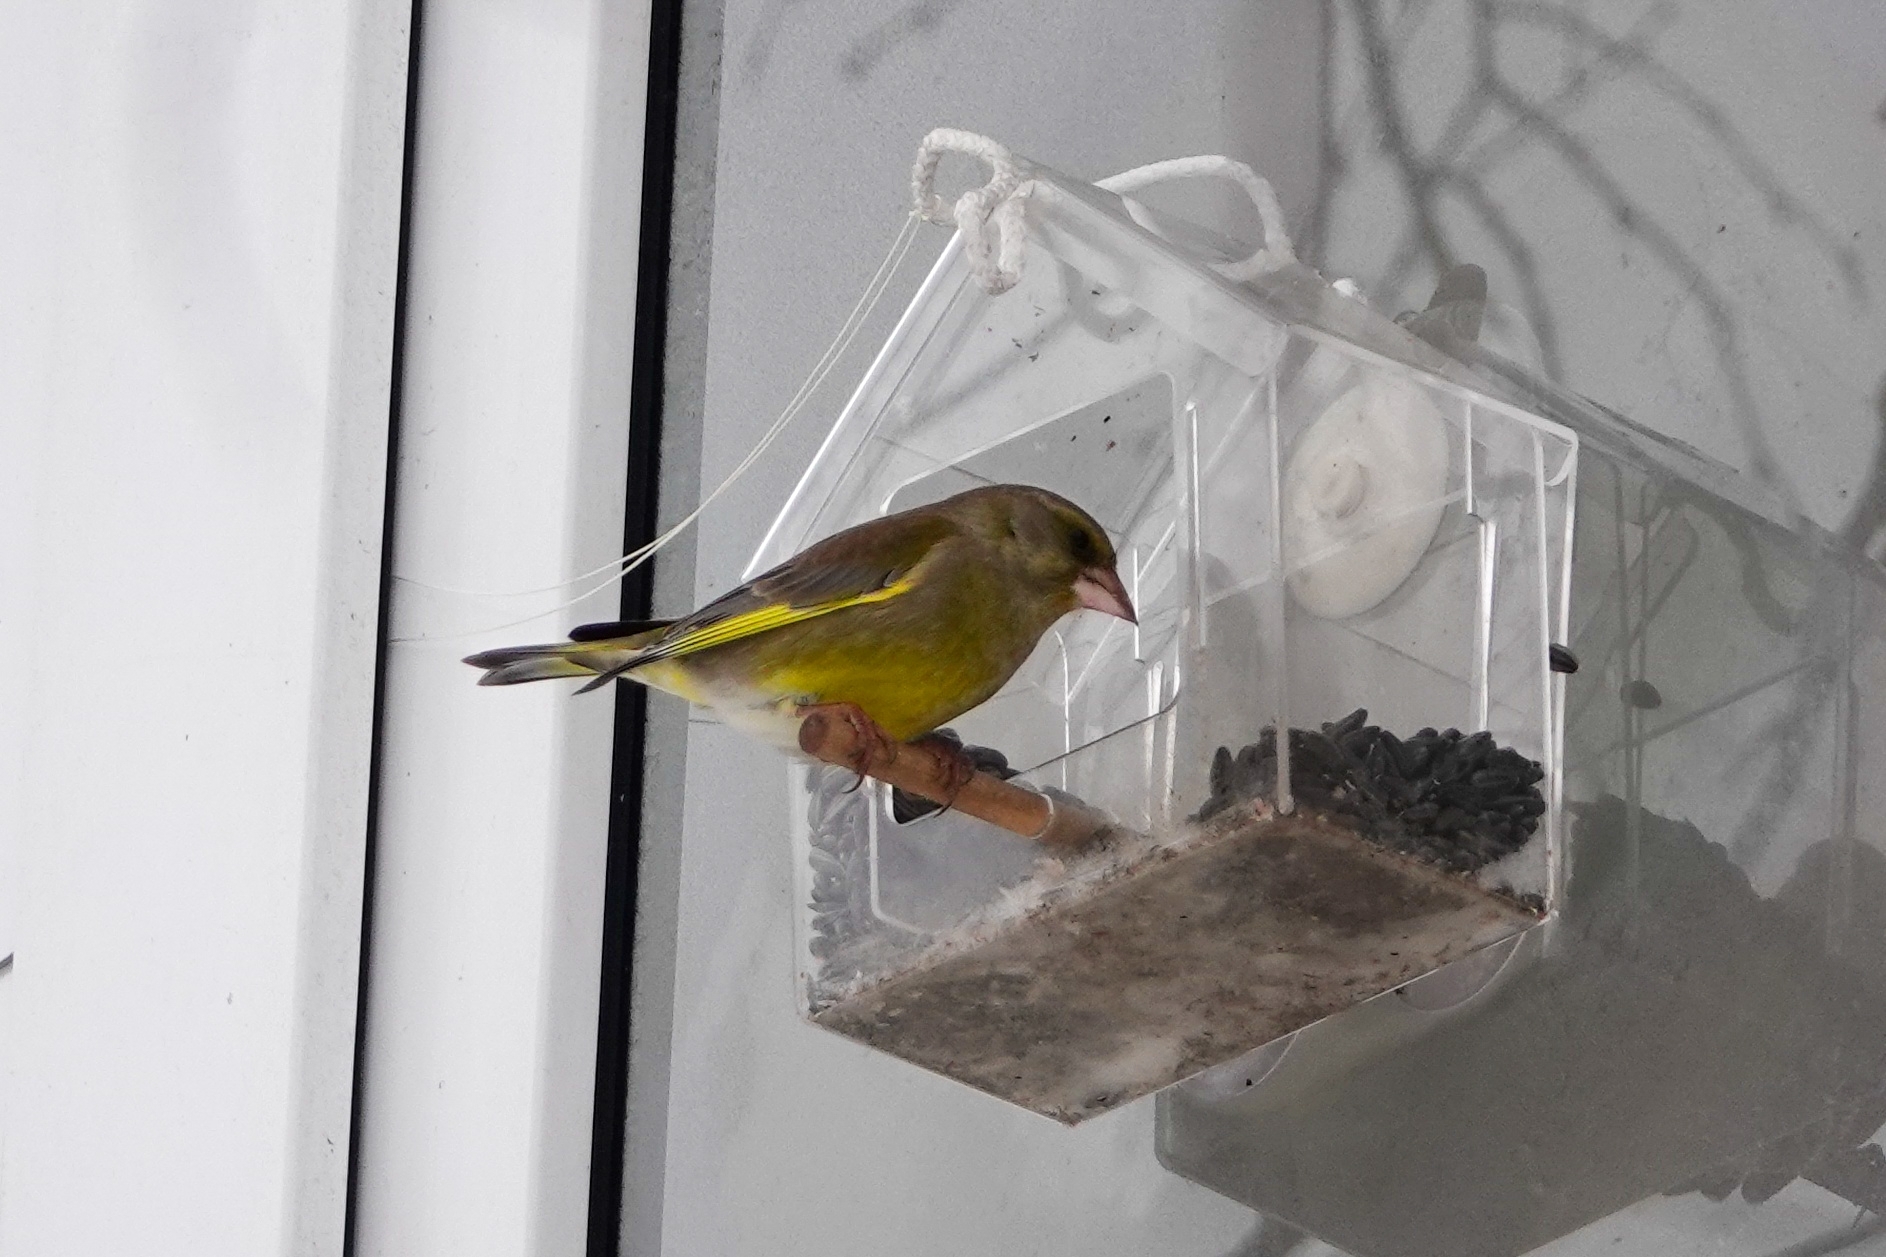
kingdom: Plantae
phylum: Tracheophyta
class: Liliopsida
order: Poales
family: Poaceae
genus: Chloris
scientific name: Chloris chloris
